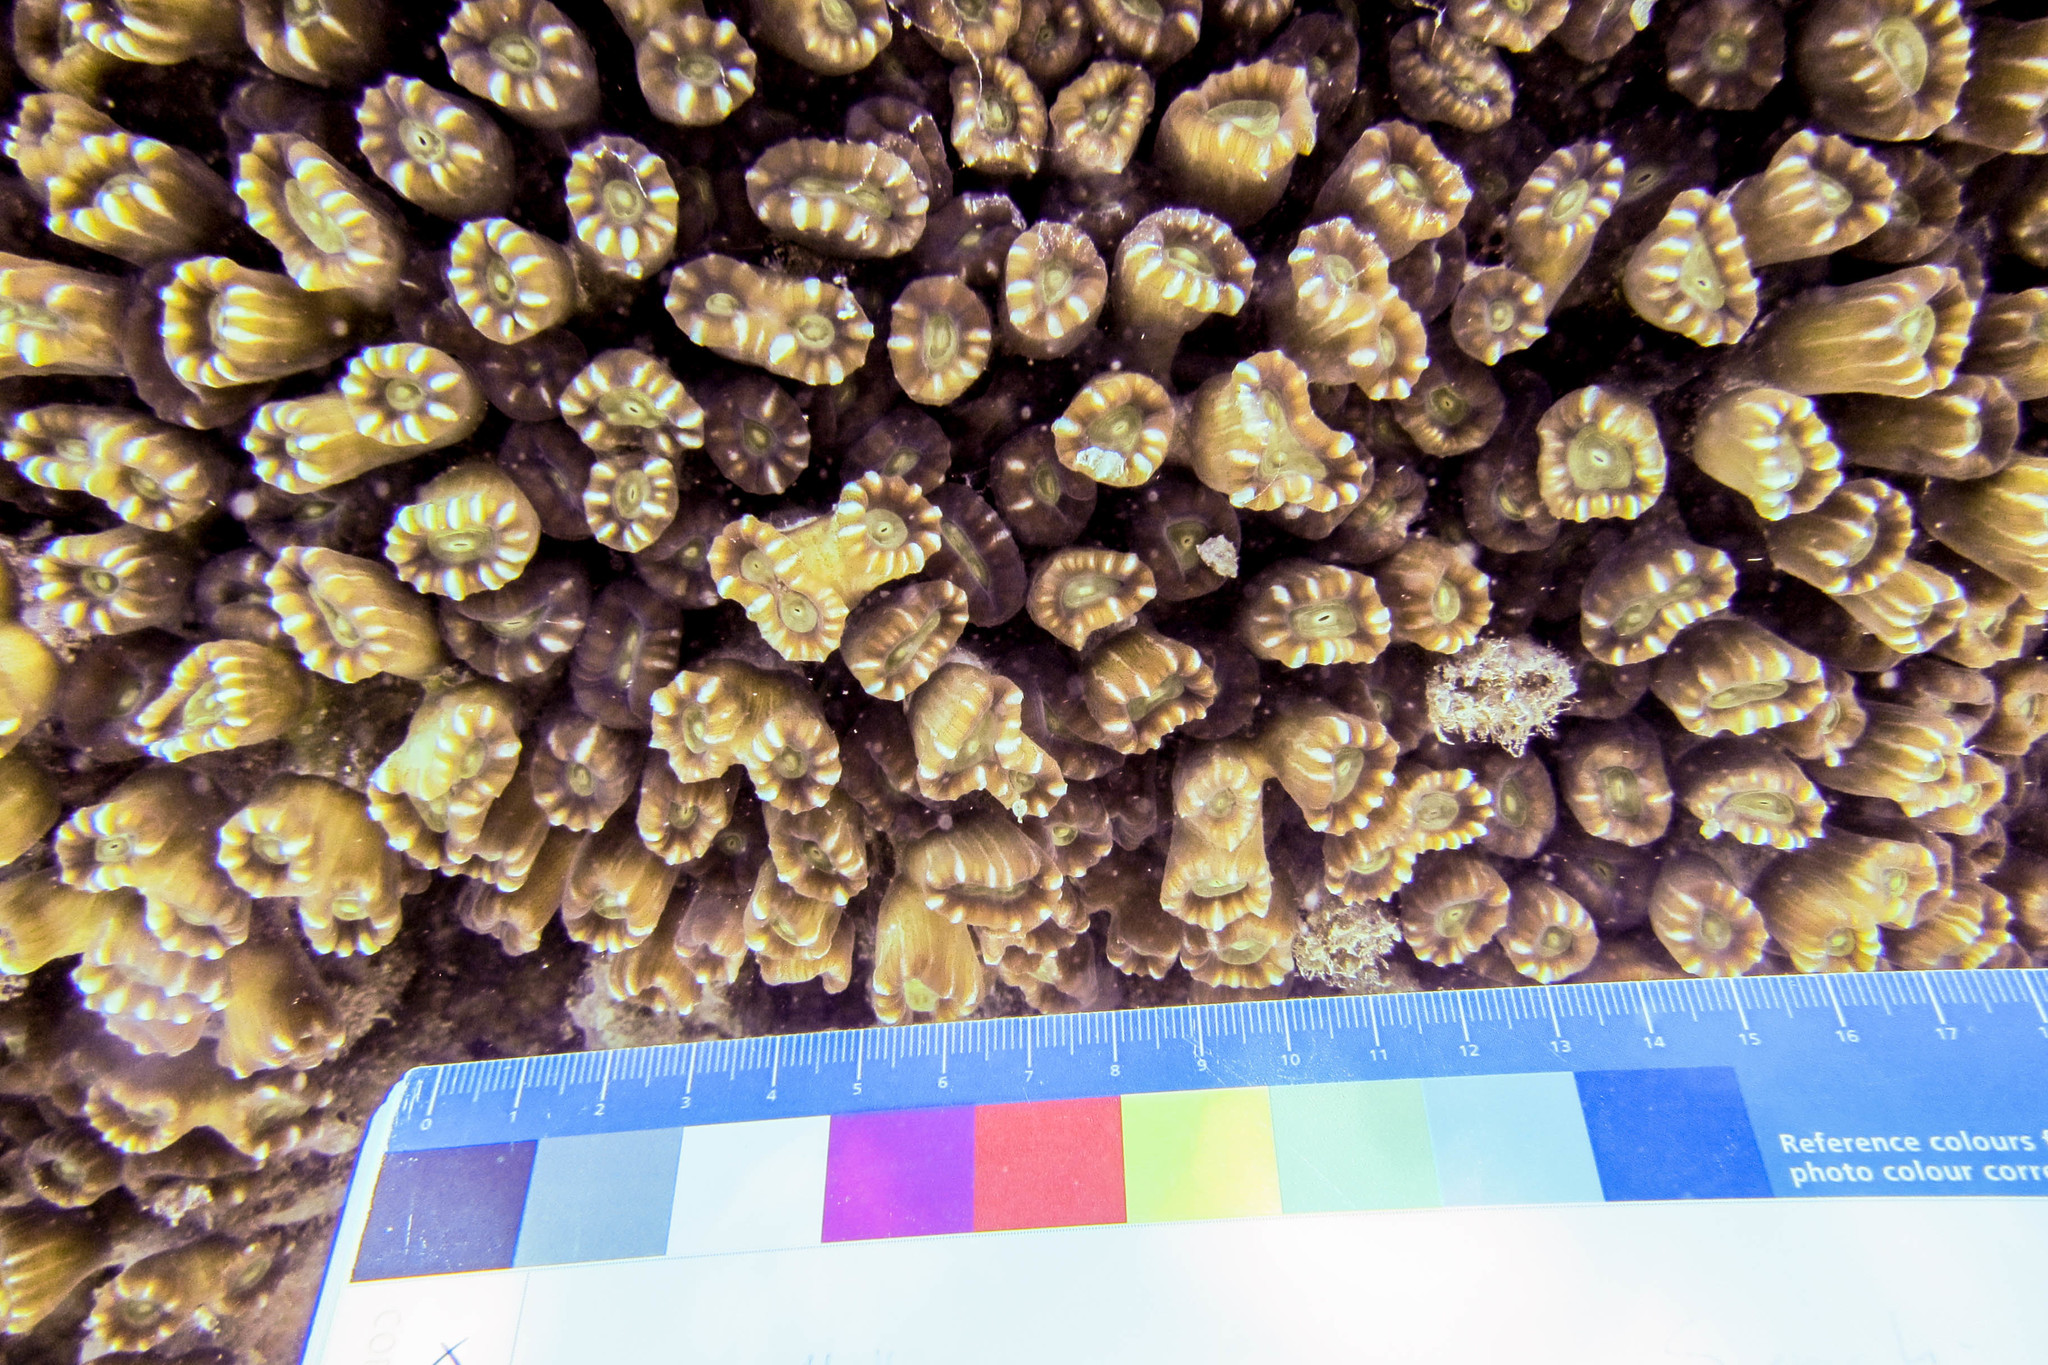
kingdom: Animalia
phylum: Cnidaria
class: Anthozoa
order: Scleractinia
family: Merulinidae
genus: Caulastraea
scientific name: Caulastraea furcata
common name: Finger coral
